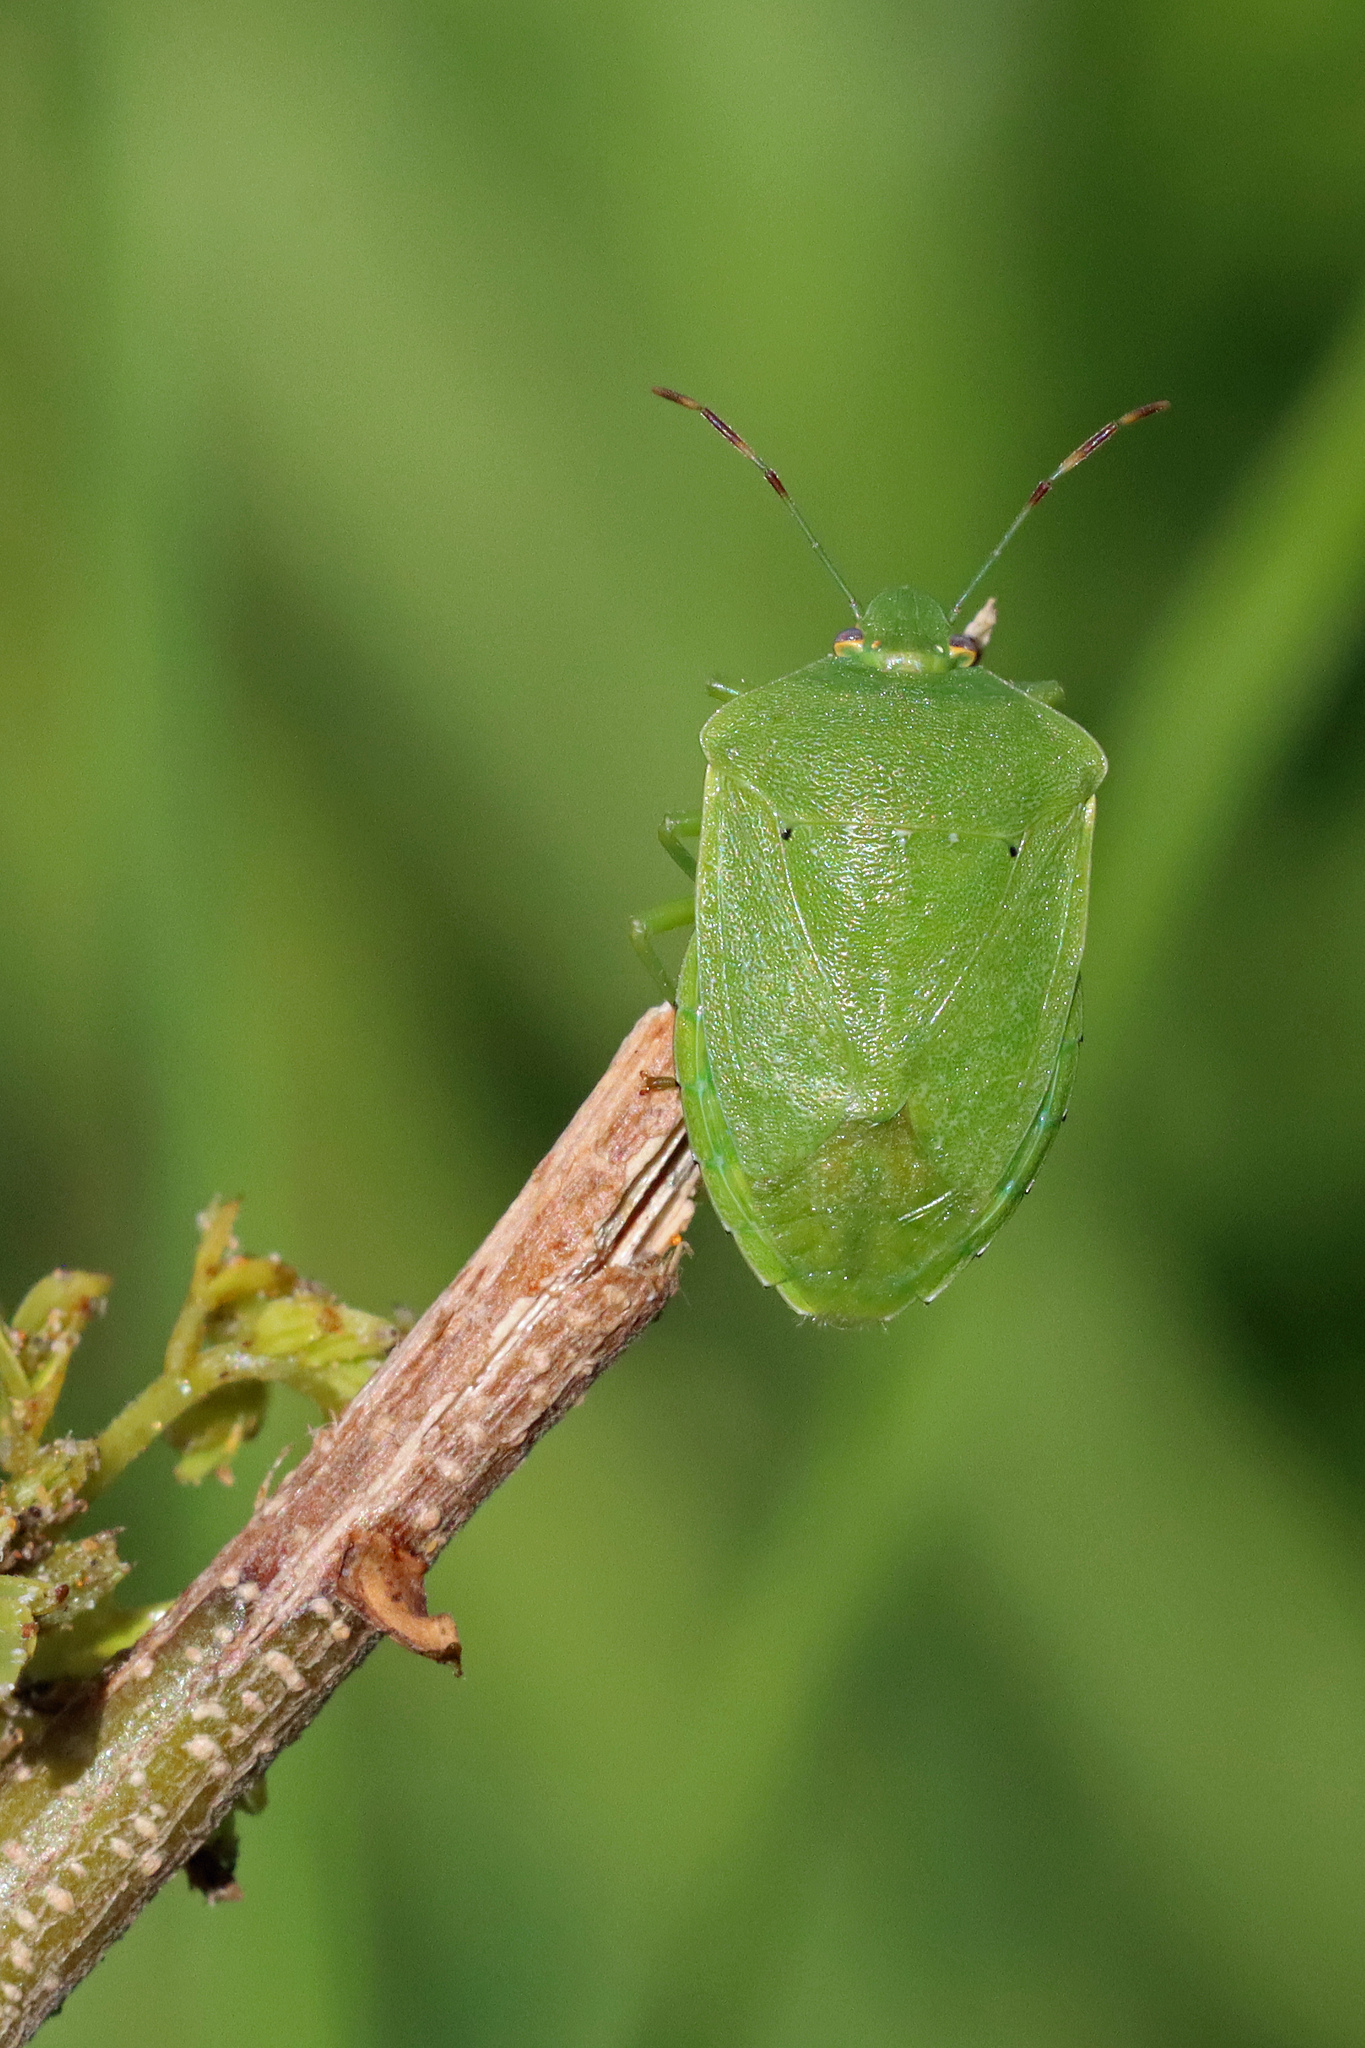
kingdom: Animalia
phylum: Arthropoda
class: Insecta
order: Hemiptera
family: Pentatomidae
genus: Nezara
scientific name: Nezara viridula
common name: Southern green stink bug
